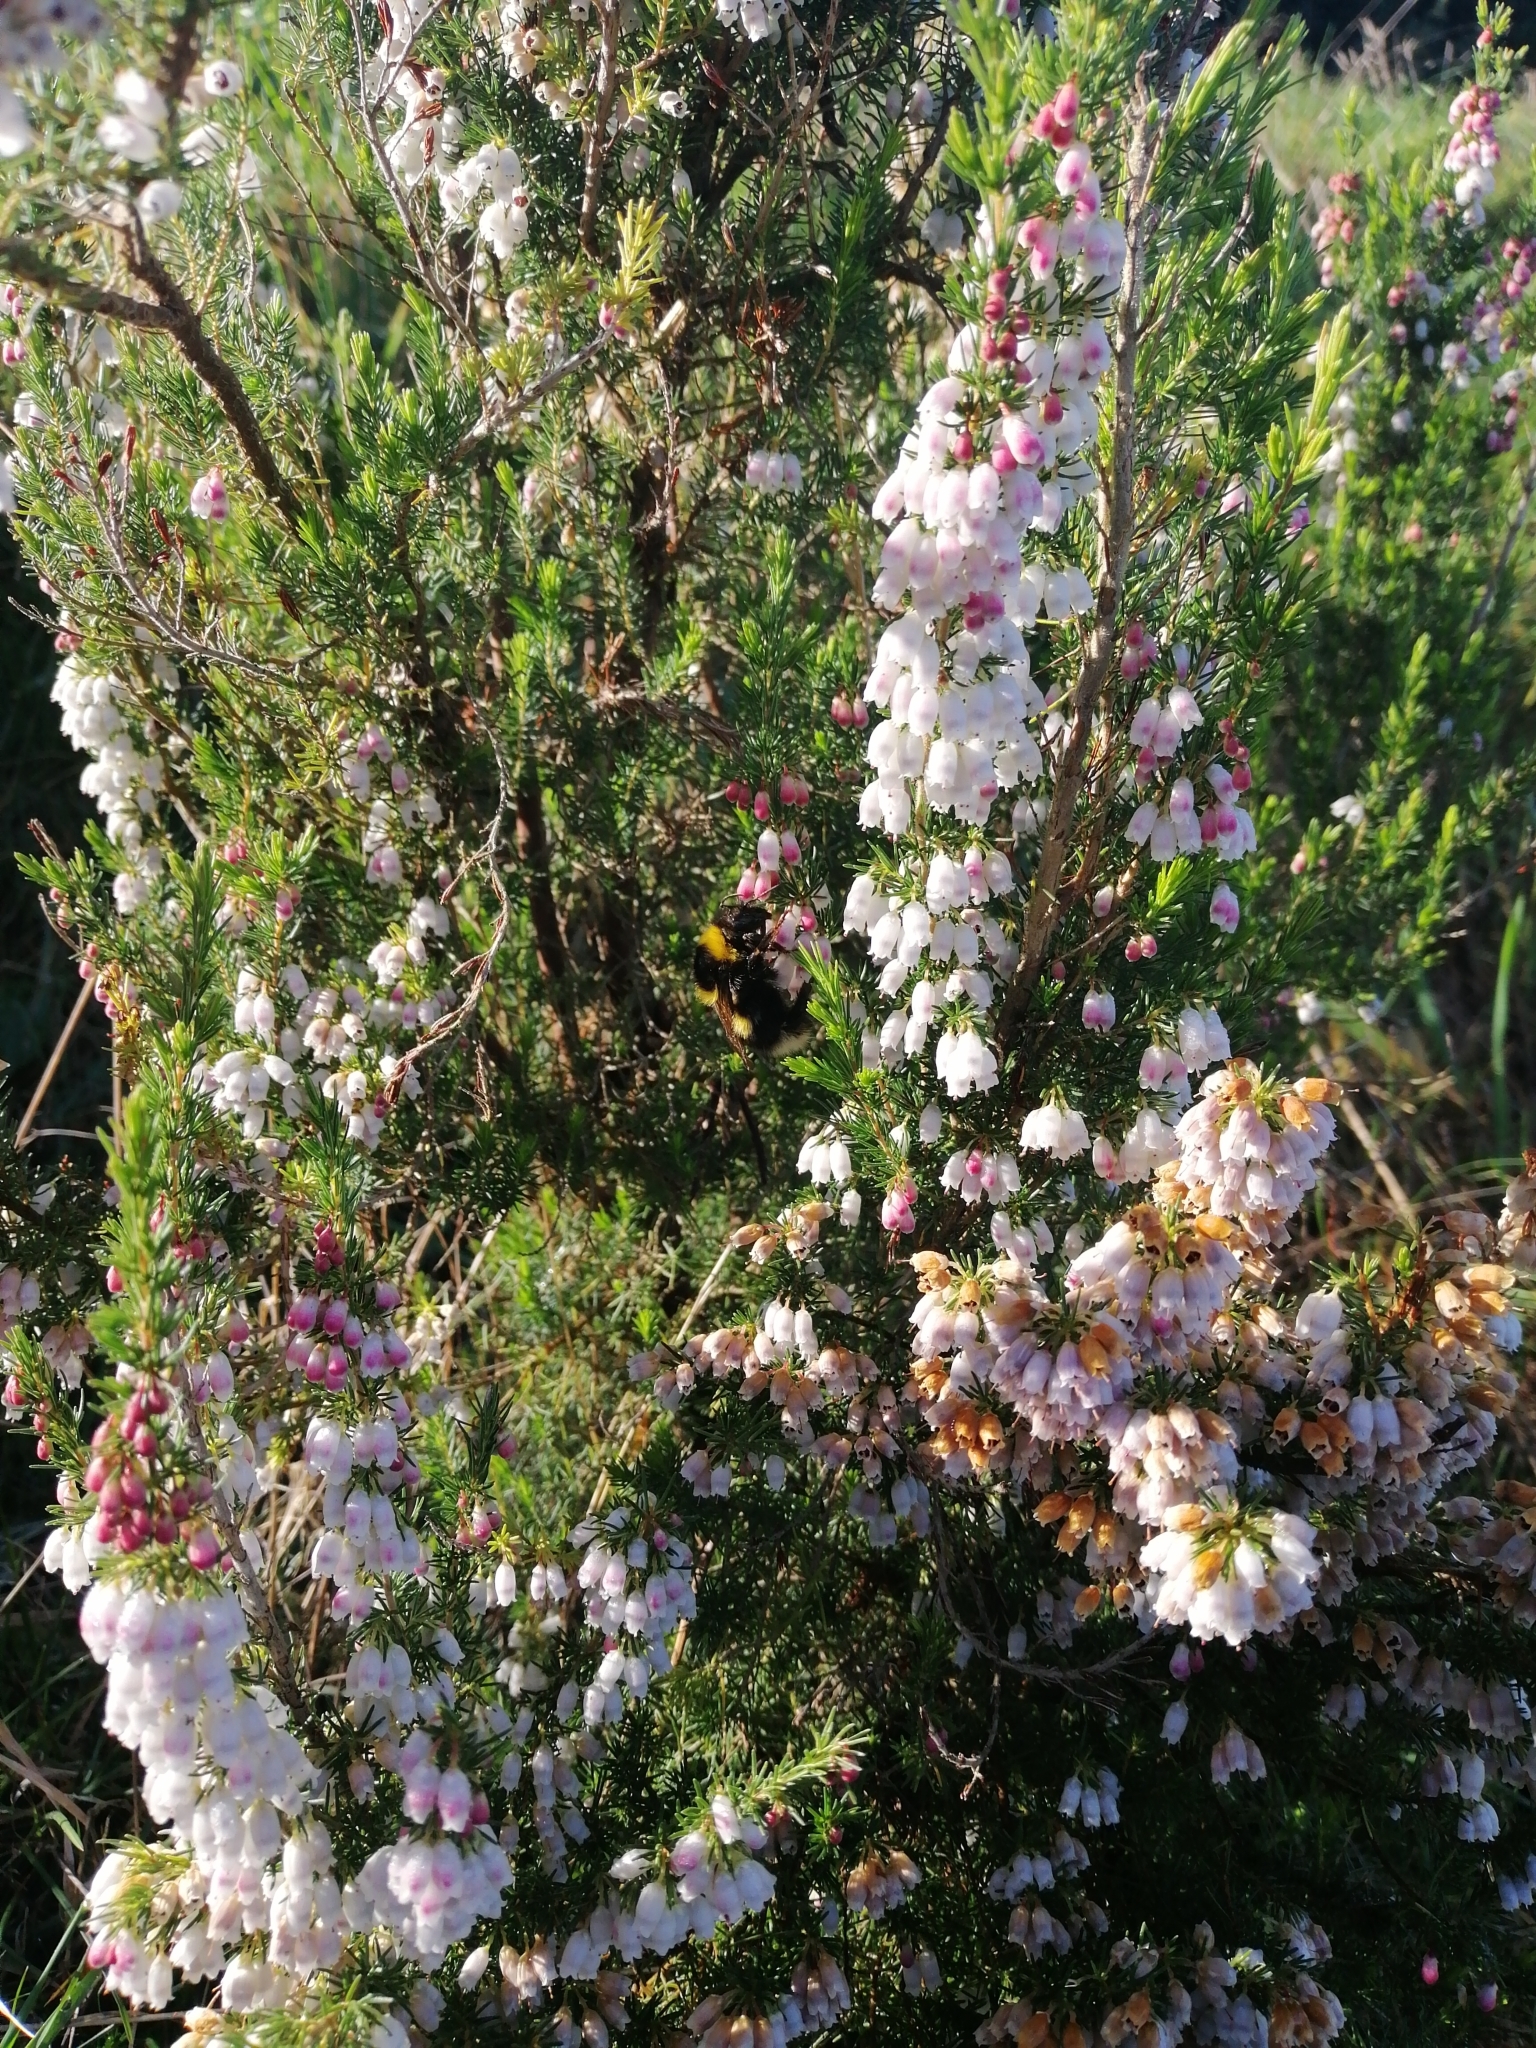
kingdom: Plantae
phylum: Tracheophyta
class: Magnoliopsida
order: Ericales
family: Ericaceae
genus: Erica
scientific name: Erica lusitanica
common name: Spanish heath
